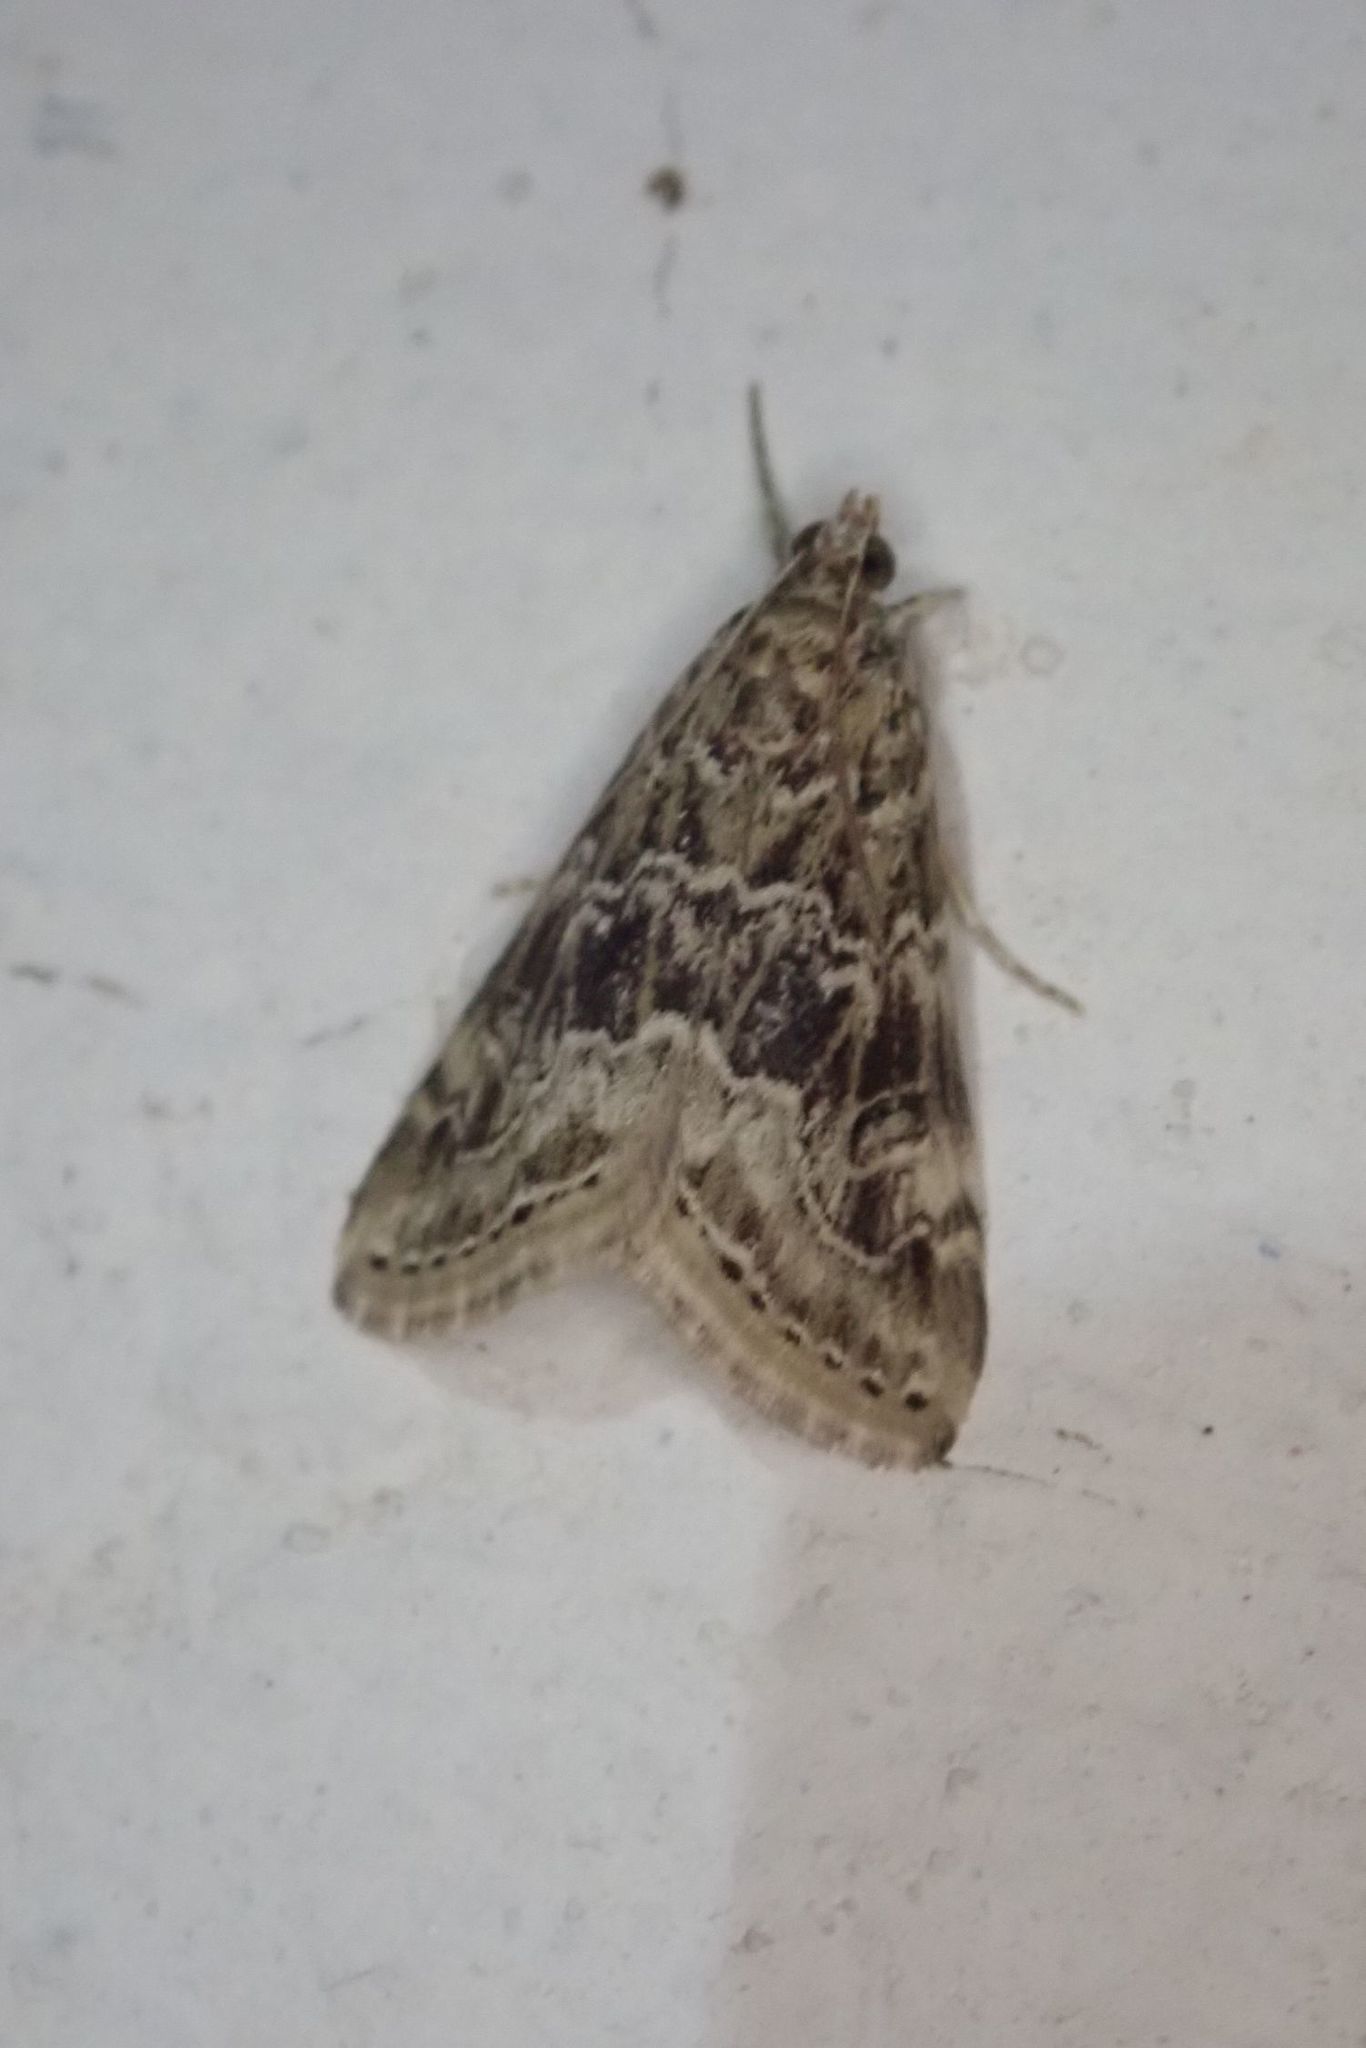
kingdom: Animalia
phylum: Arthropoda
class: Insecta
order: Lepidoptera
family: Crambidae
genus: Hellula
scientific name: Hellula undalis
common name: Cabbage webworm
